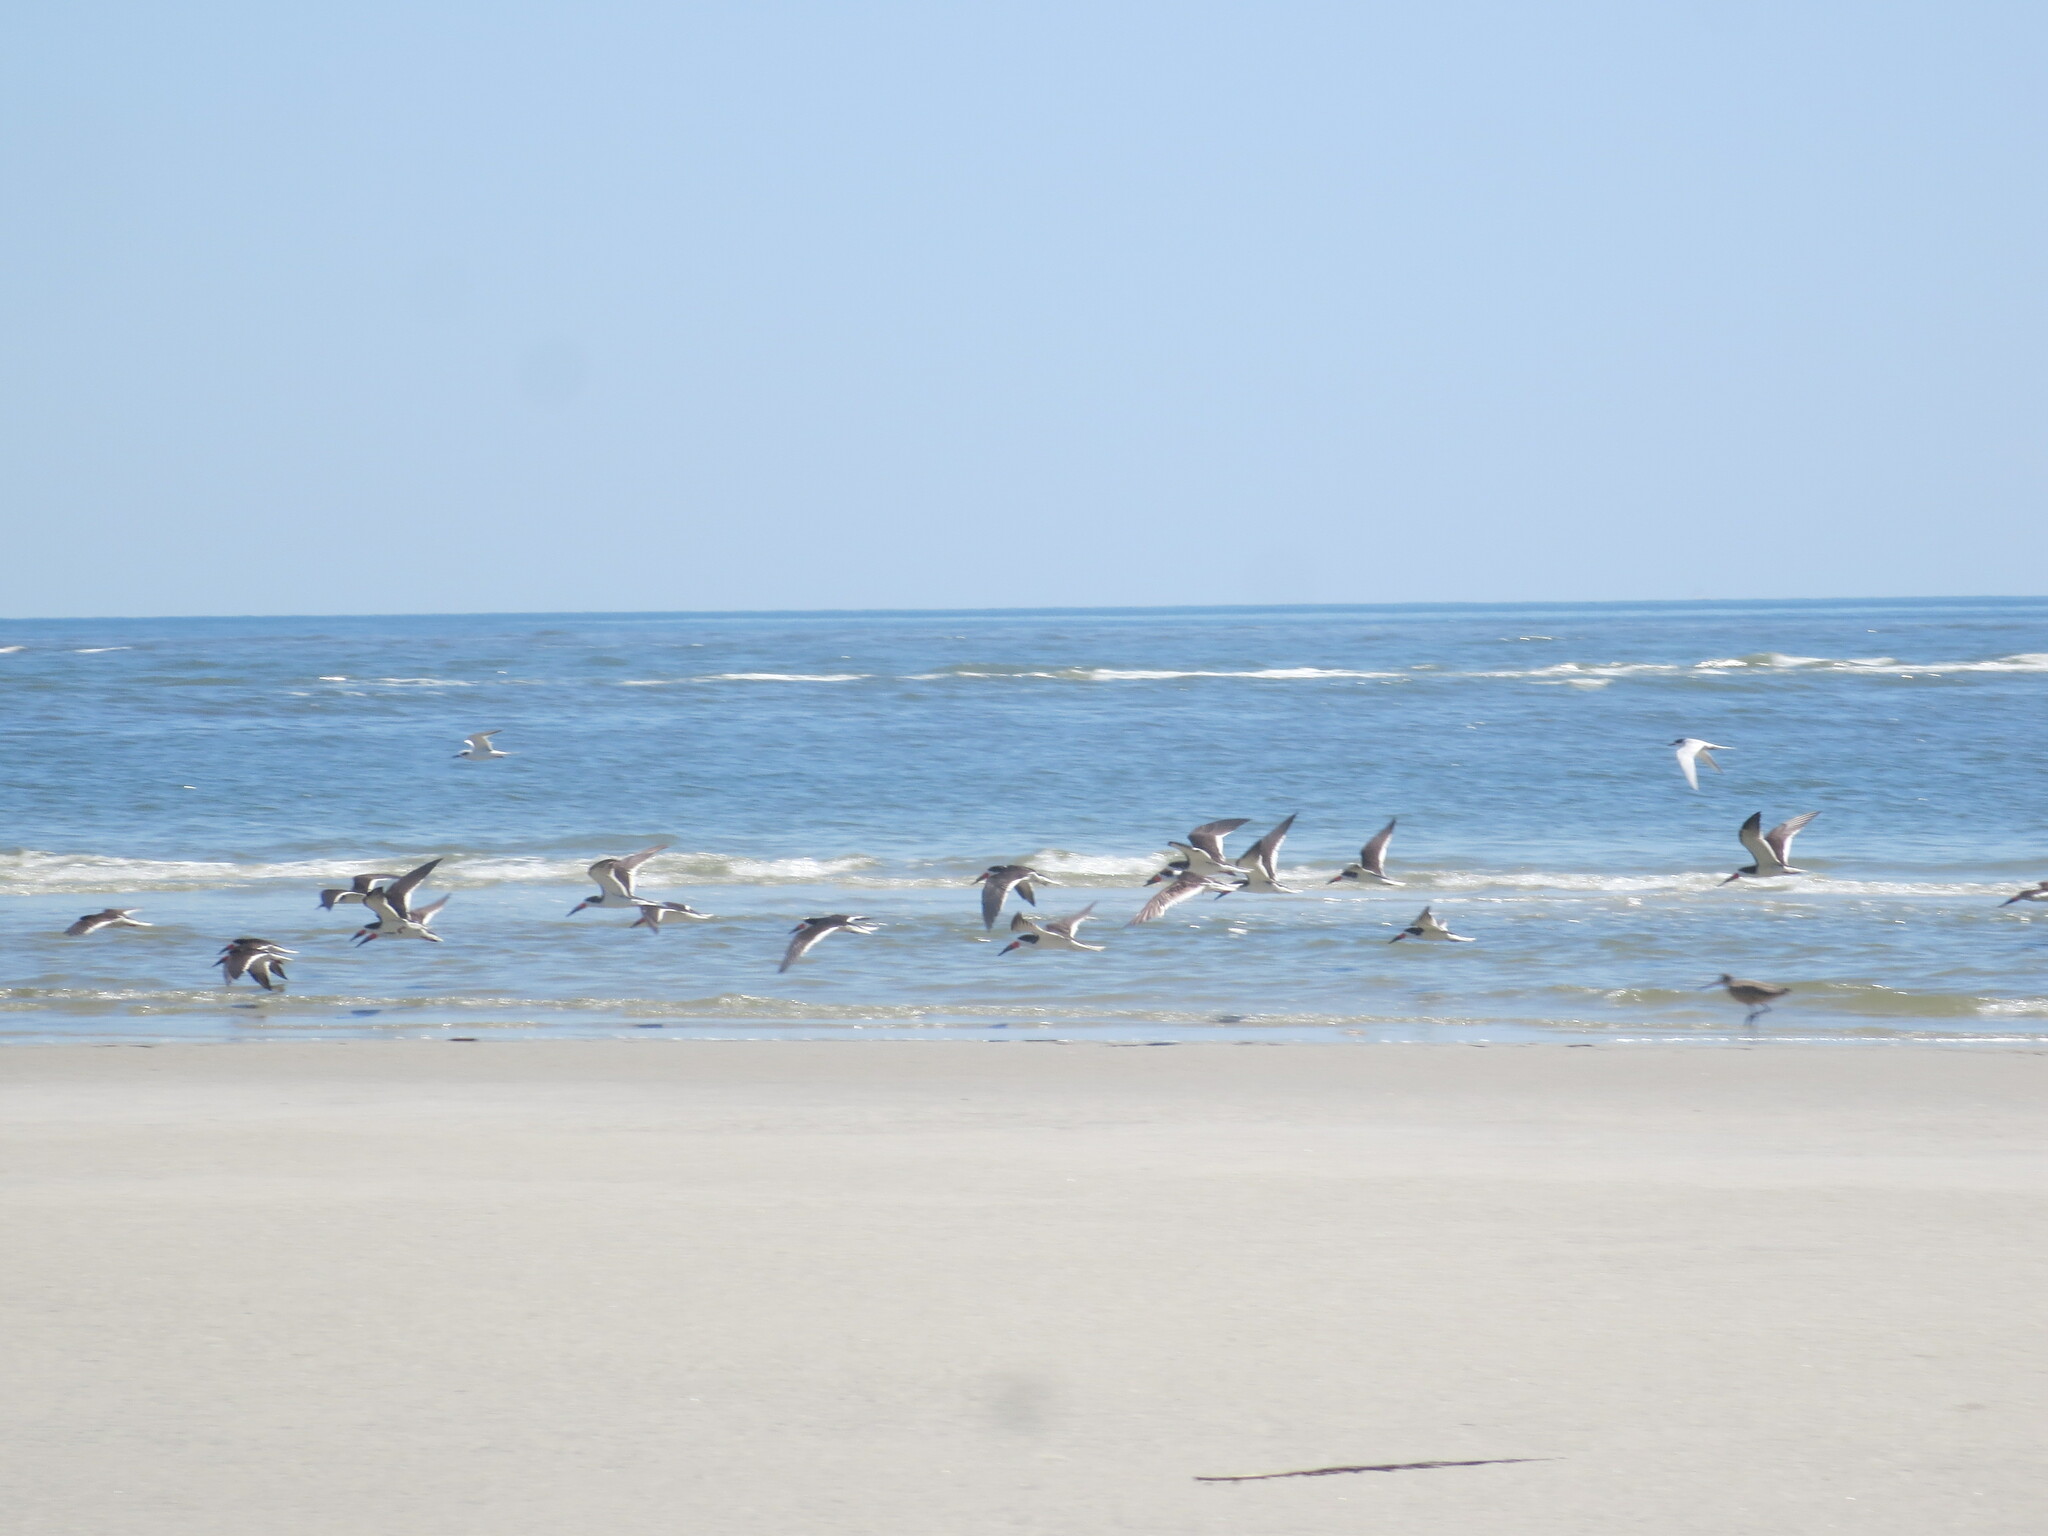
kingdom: Animalia
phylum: Chordata
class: Aves
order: Charadriiformes
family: Laridae
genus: Thalasseus
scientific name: Thalasseus sandvicensis
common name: Sandwich tern
